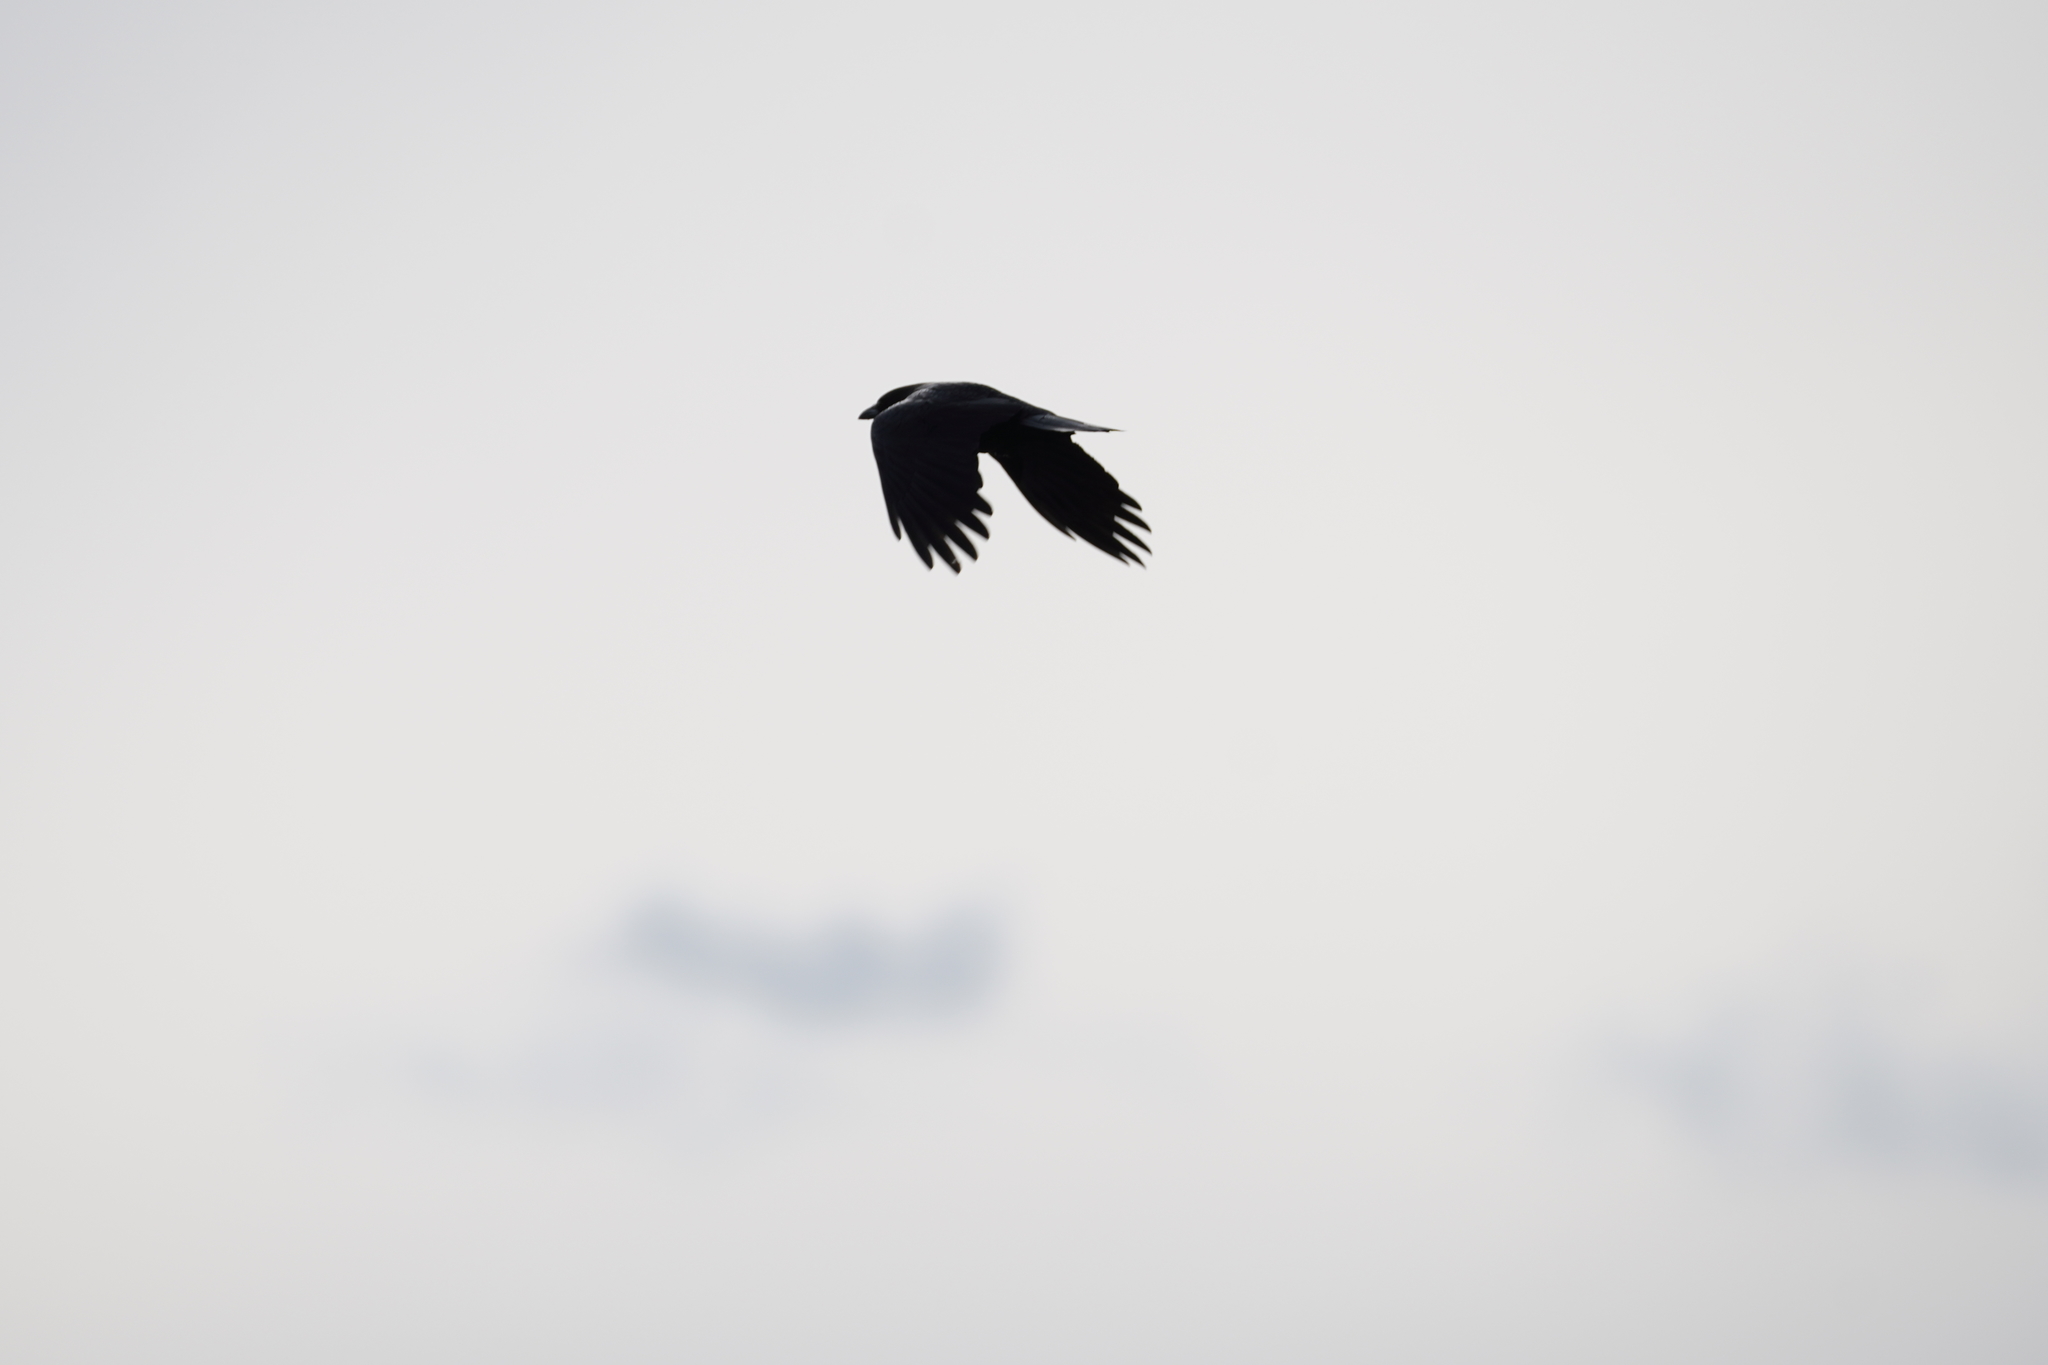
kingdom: Animalia
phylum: Chordata
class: Aves
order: Passeriformes
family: Corvidae
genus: Corvus
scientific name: Corvus brachyrhynchos
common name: American crow
